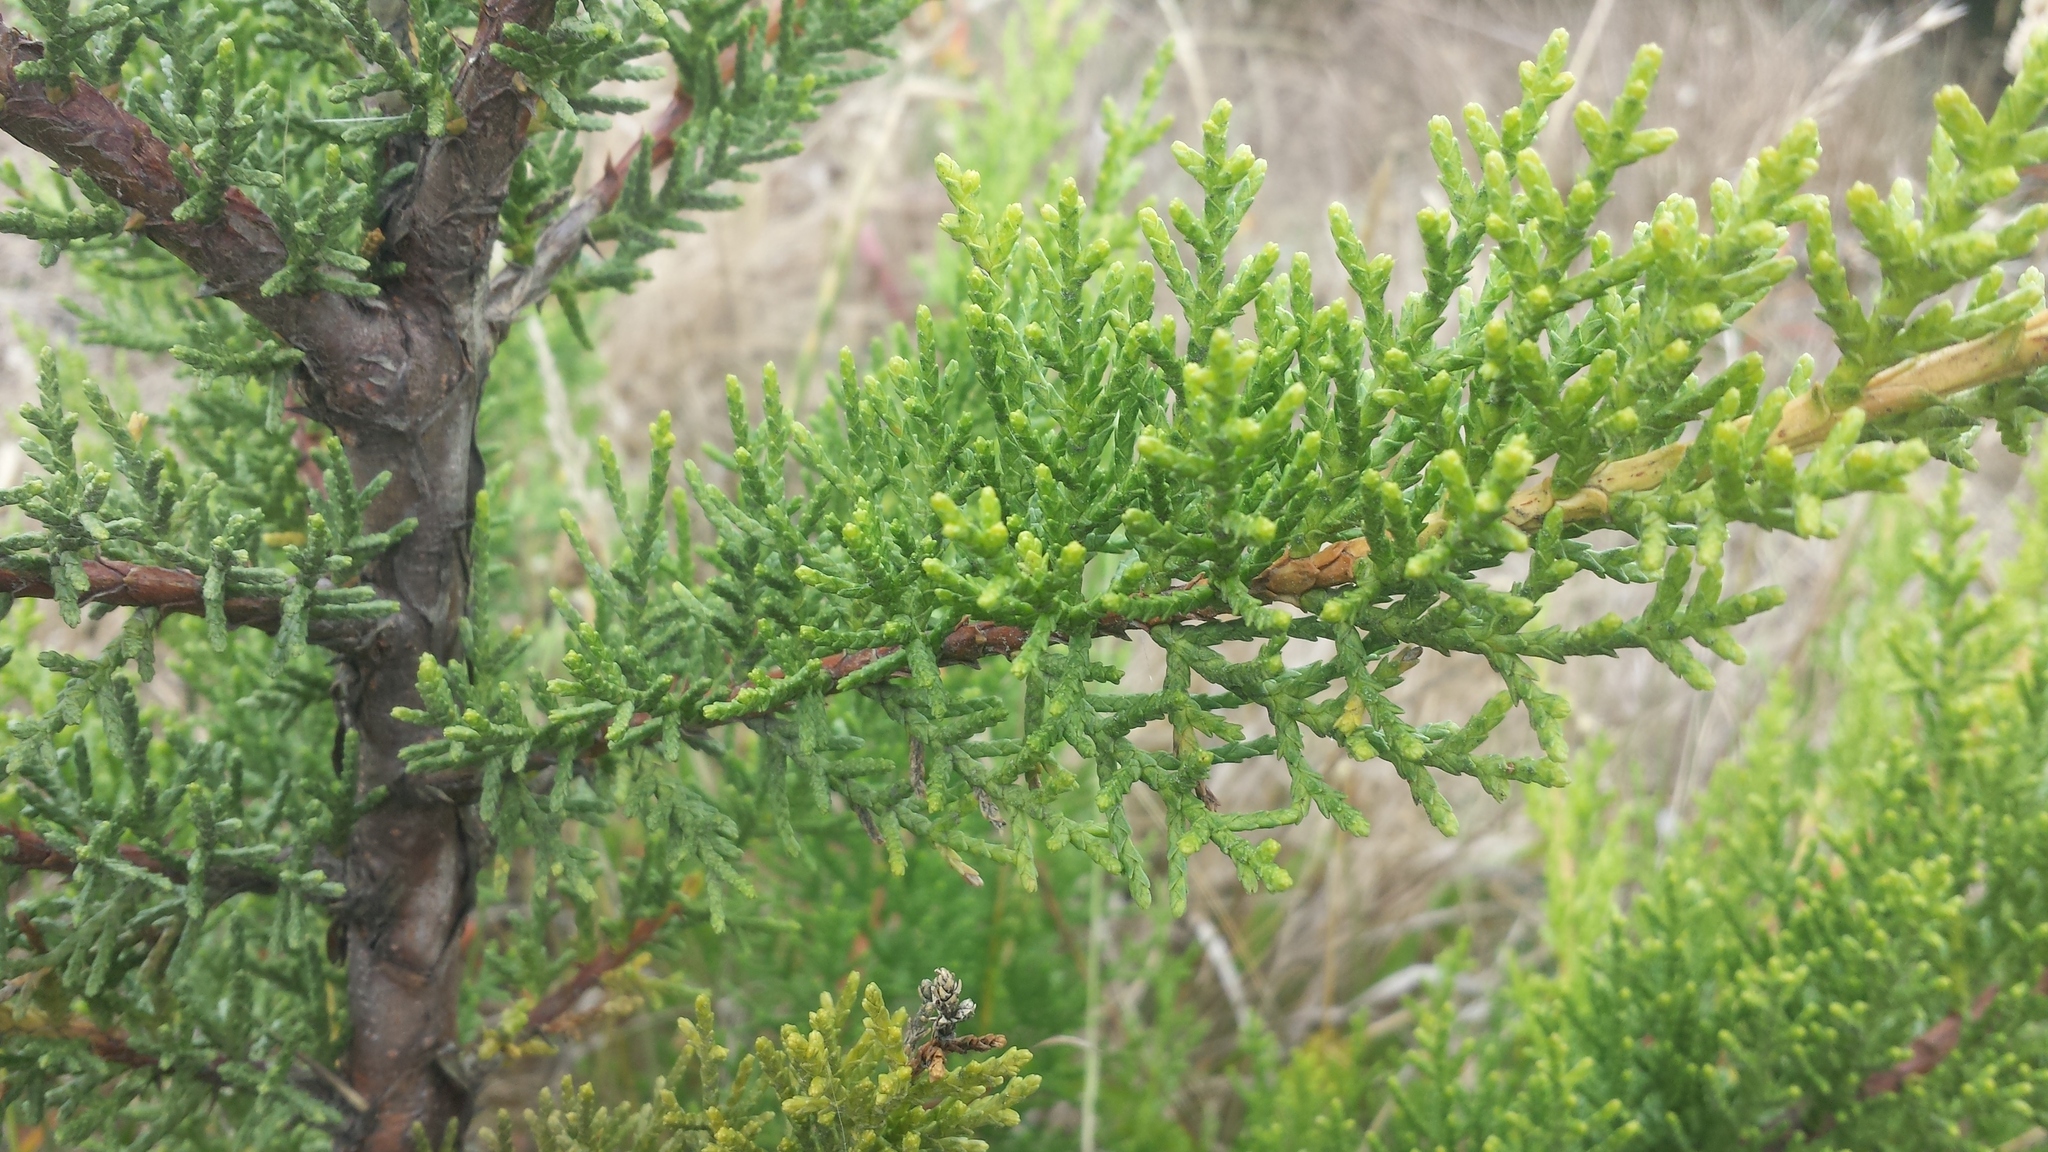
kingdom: Plantae
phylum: Tracheophyta
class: Pinopsida
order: Pinales
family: Cupressaceae
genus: Cupressus
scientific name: Cupressus macrocarpa
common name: Monterey cypress
